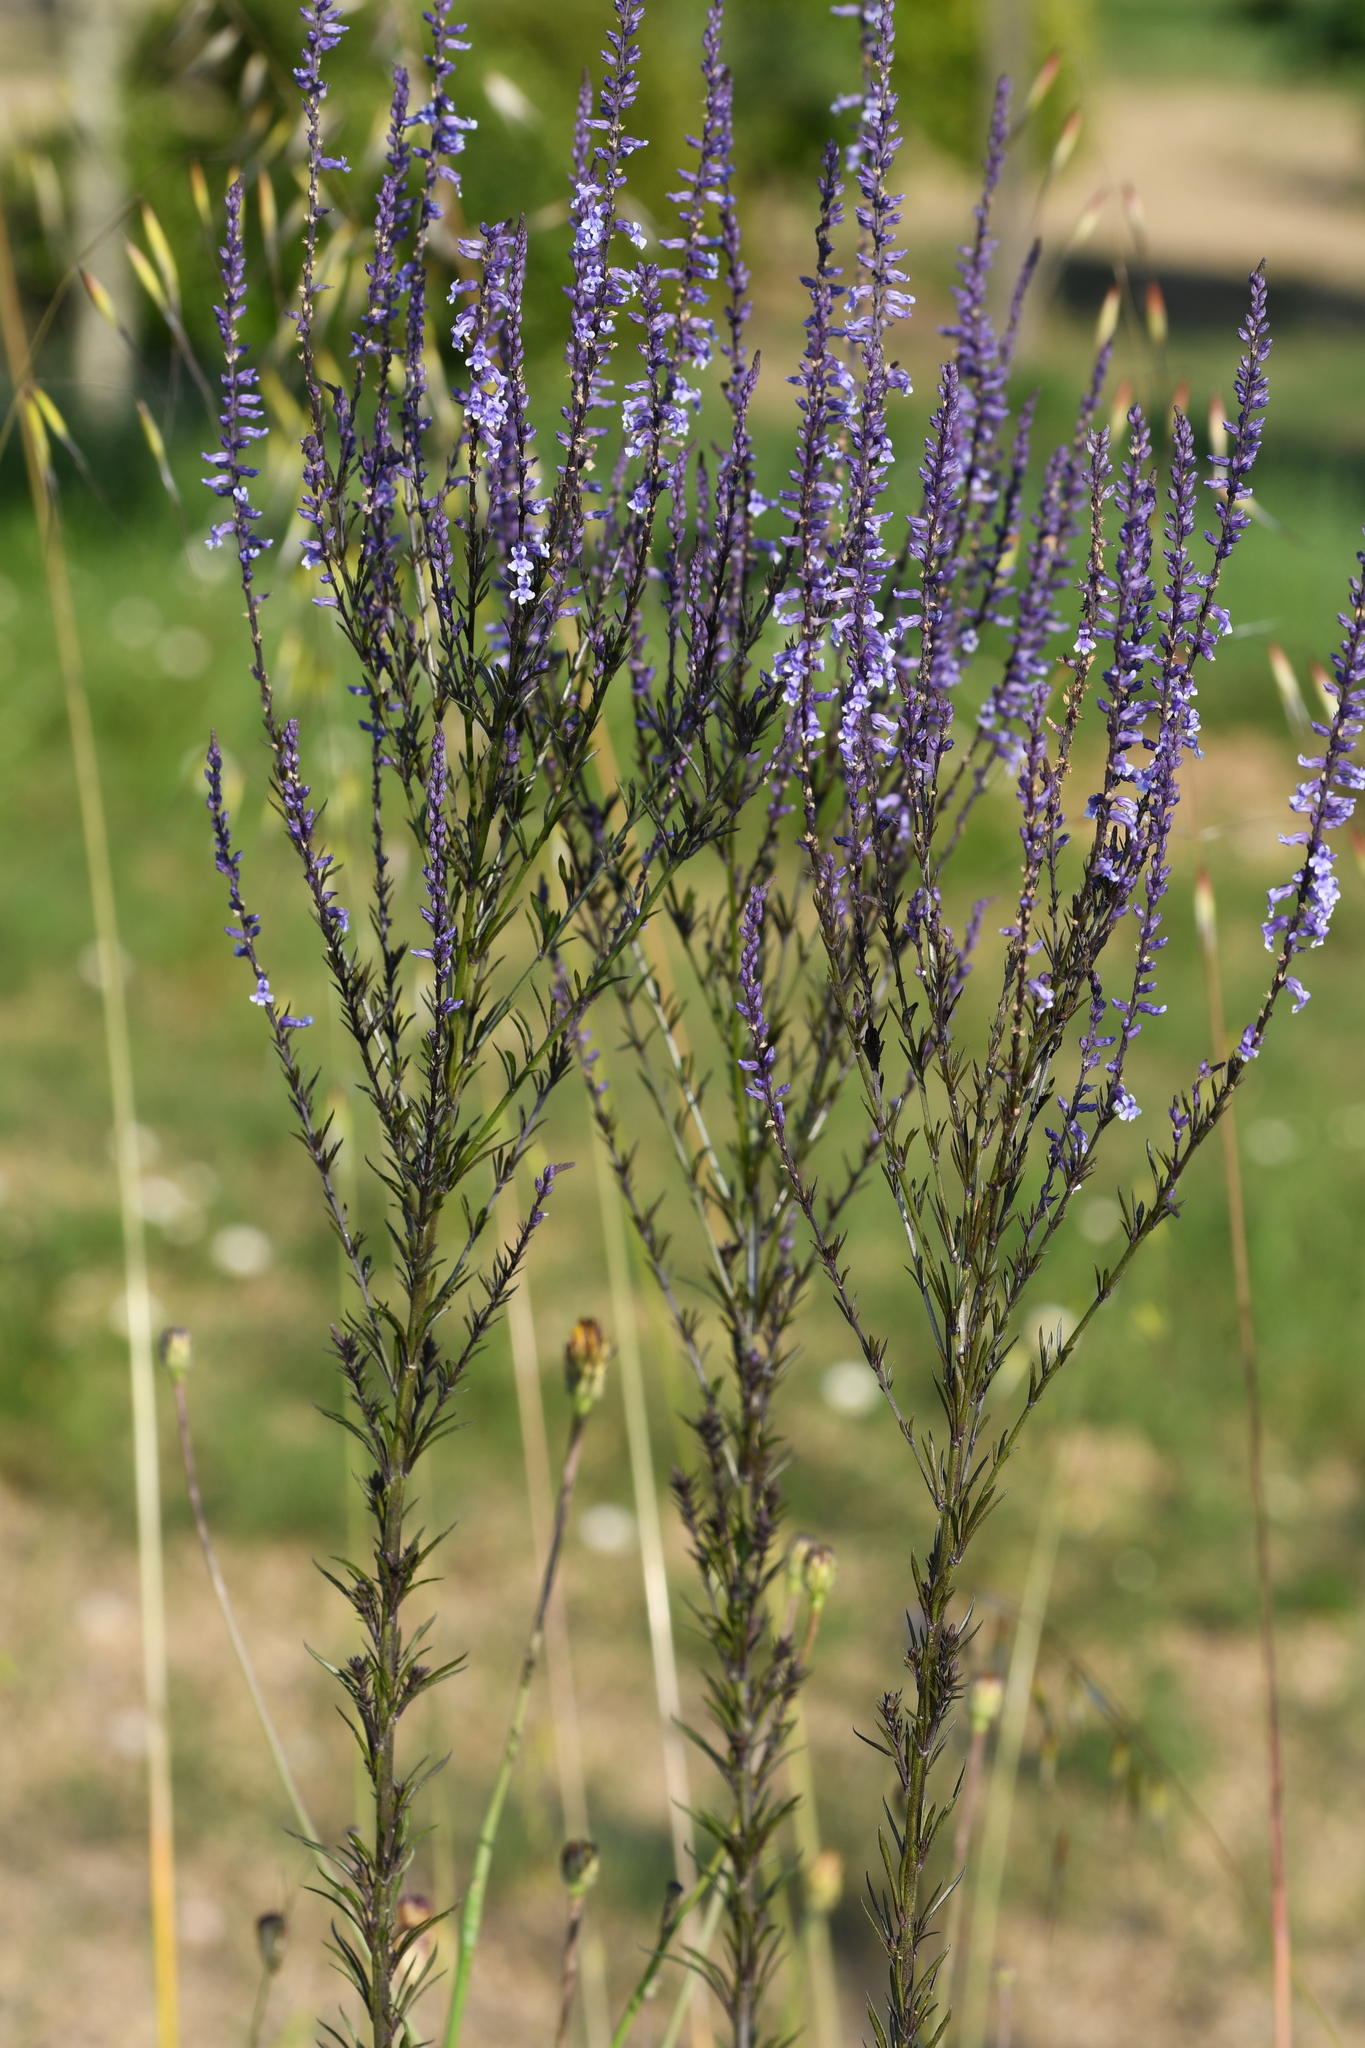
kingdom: Plantae
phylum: Tracheophyta
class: Magnoliopsida
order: Lamiales
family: Plantaginaceae
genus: Anarrhinum
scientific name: Anarrhinum bellidifolium
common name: Daisy-leaved toadflax
